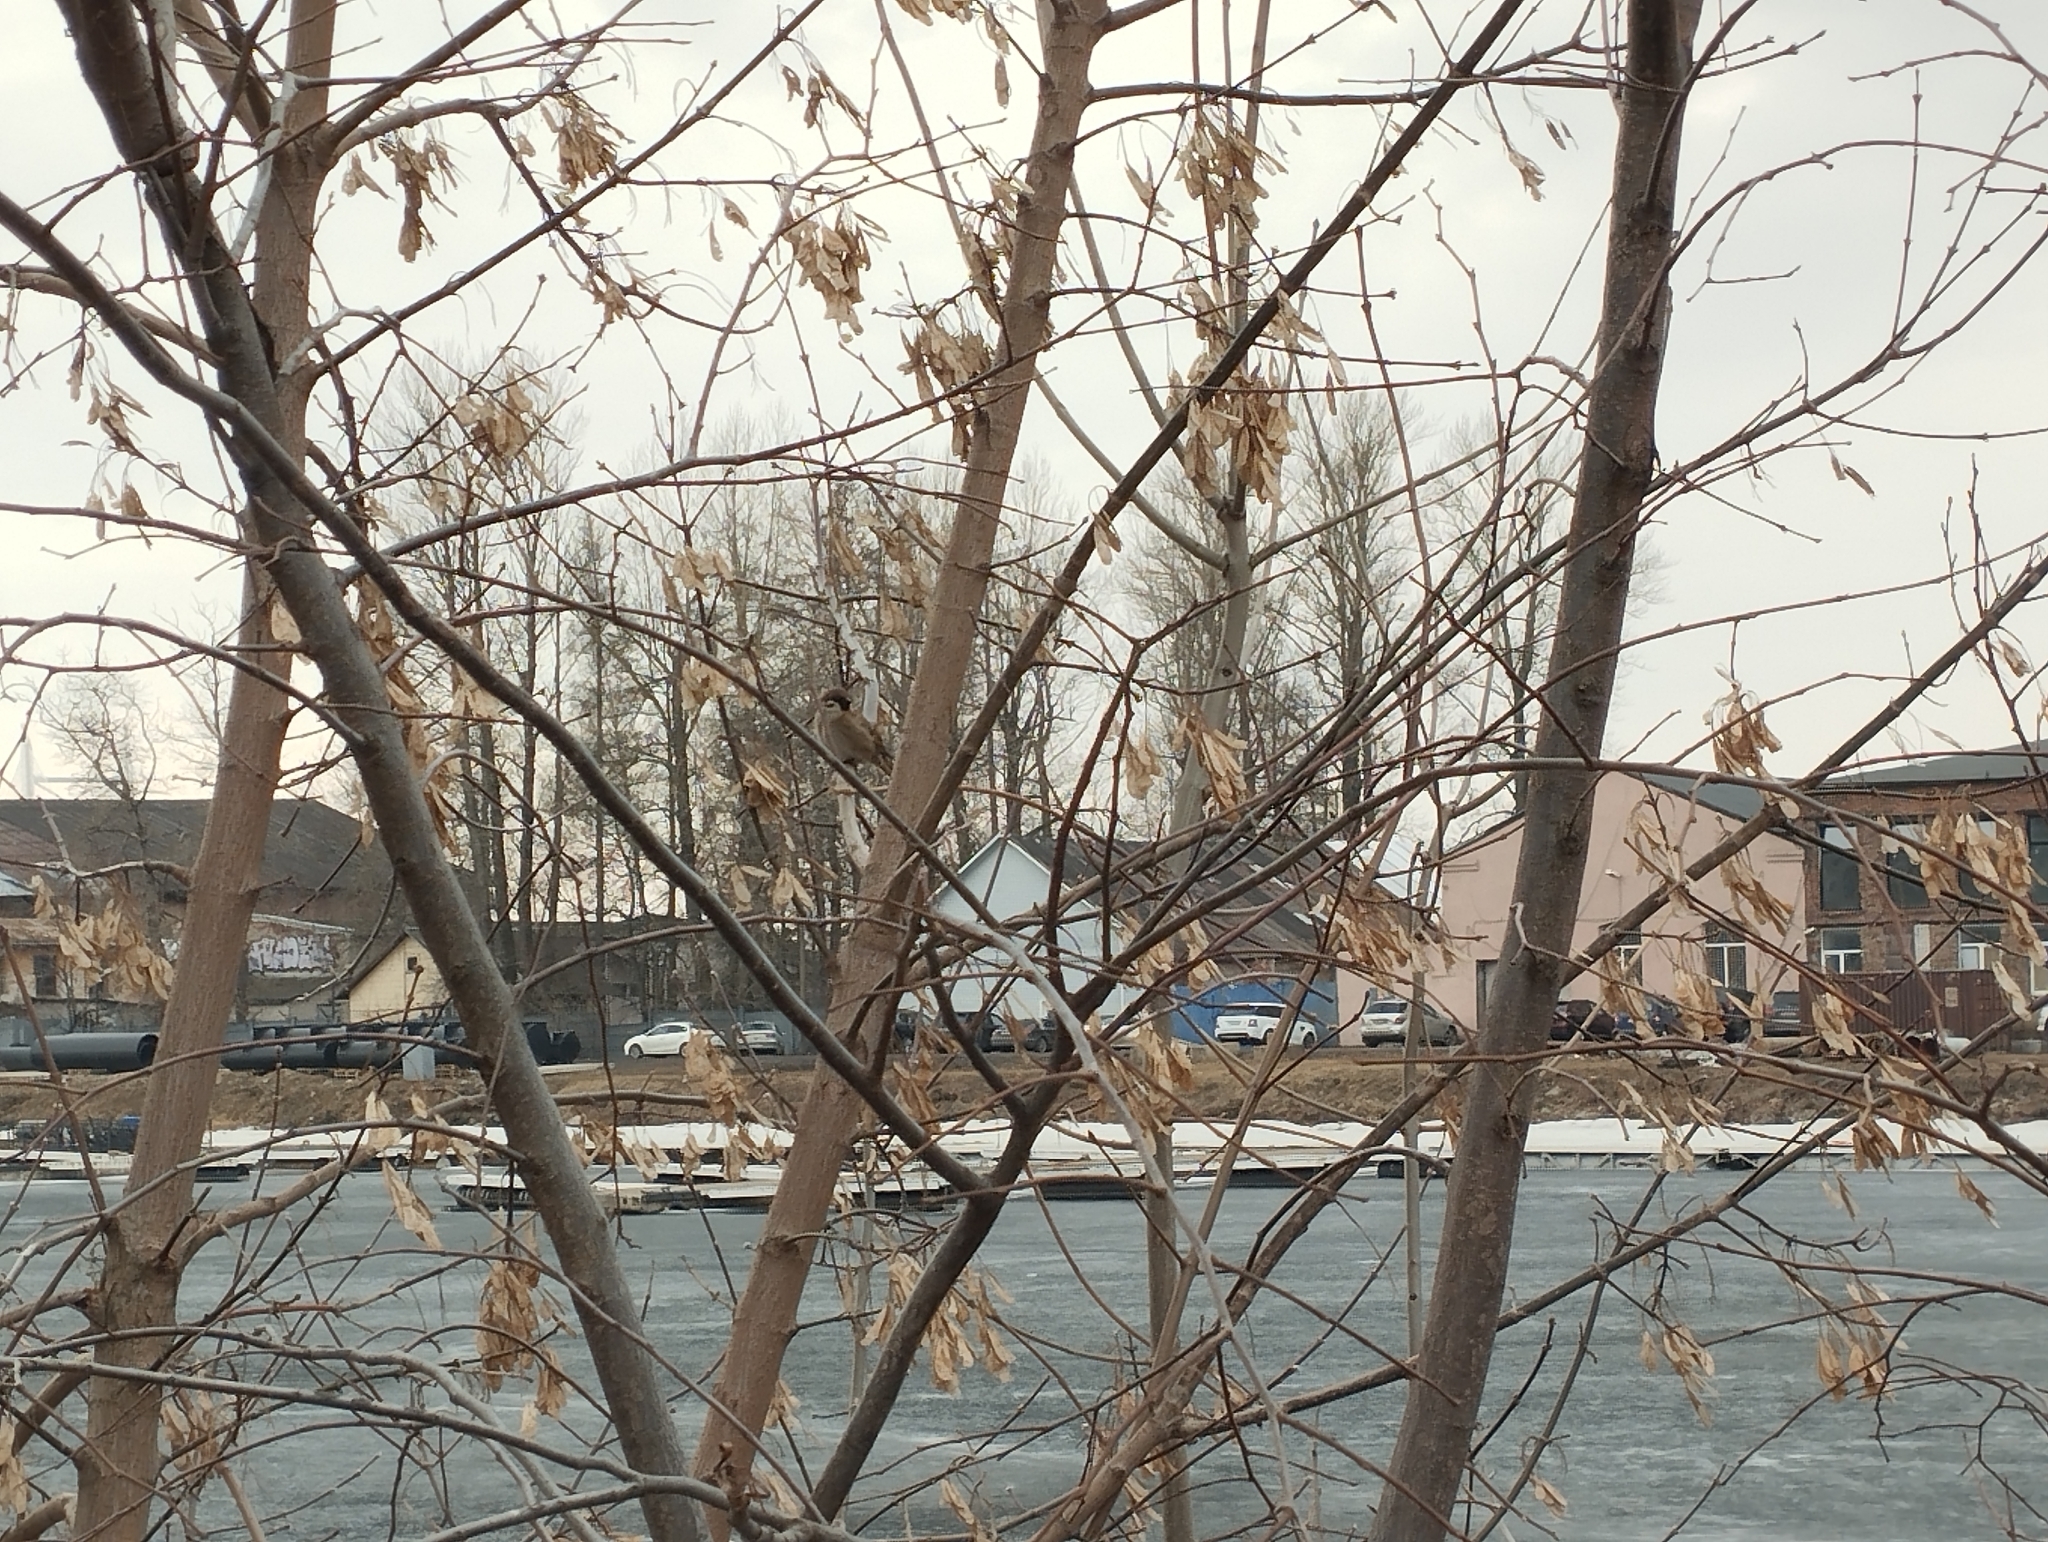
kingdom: Animalia
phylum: Chordata
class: Aves
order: Passeriformes
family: Passeridae
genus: Passer
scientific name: Passer montanus
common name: Eurasian tree sparrow
